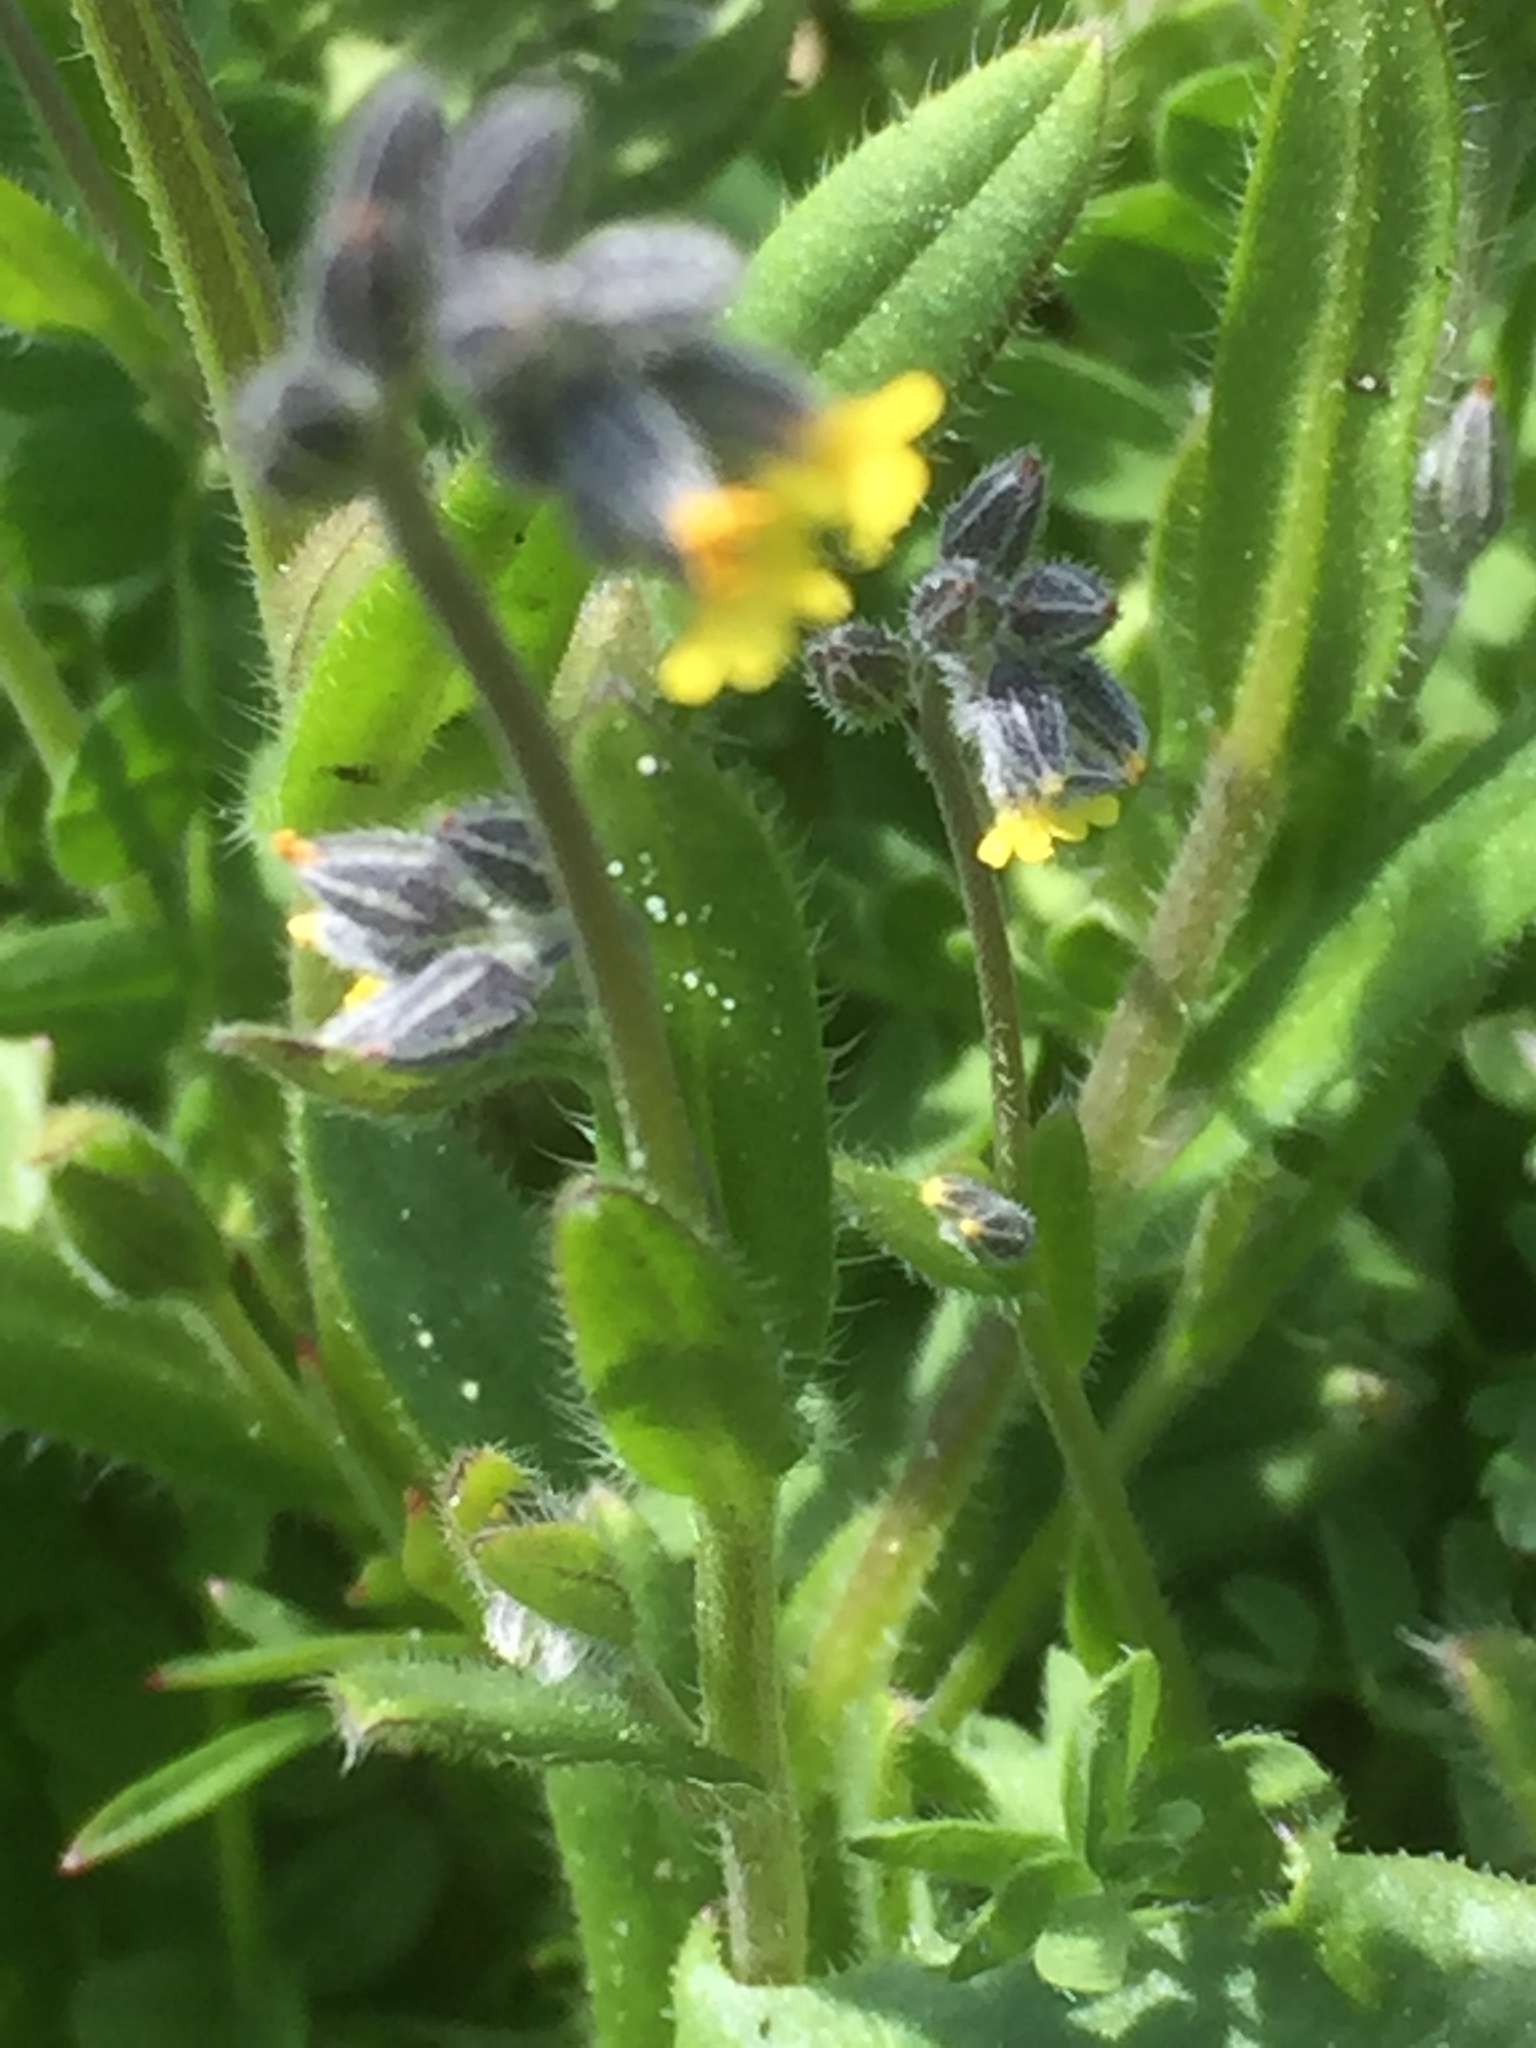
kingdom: Plantae
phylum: Tracheophyta
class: Magnoliopsida
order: Boraginales
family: Boraginaceae
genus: Myosotis
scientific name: Myosotis persoonii
